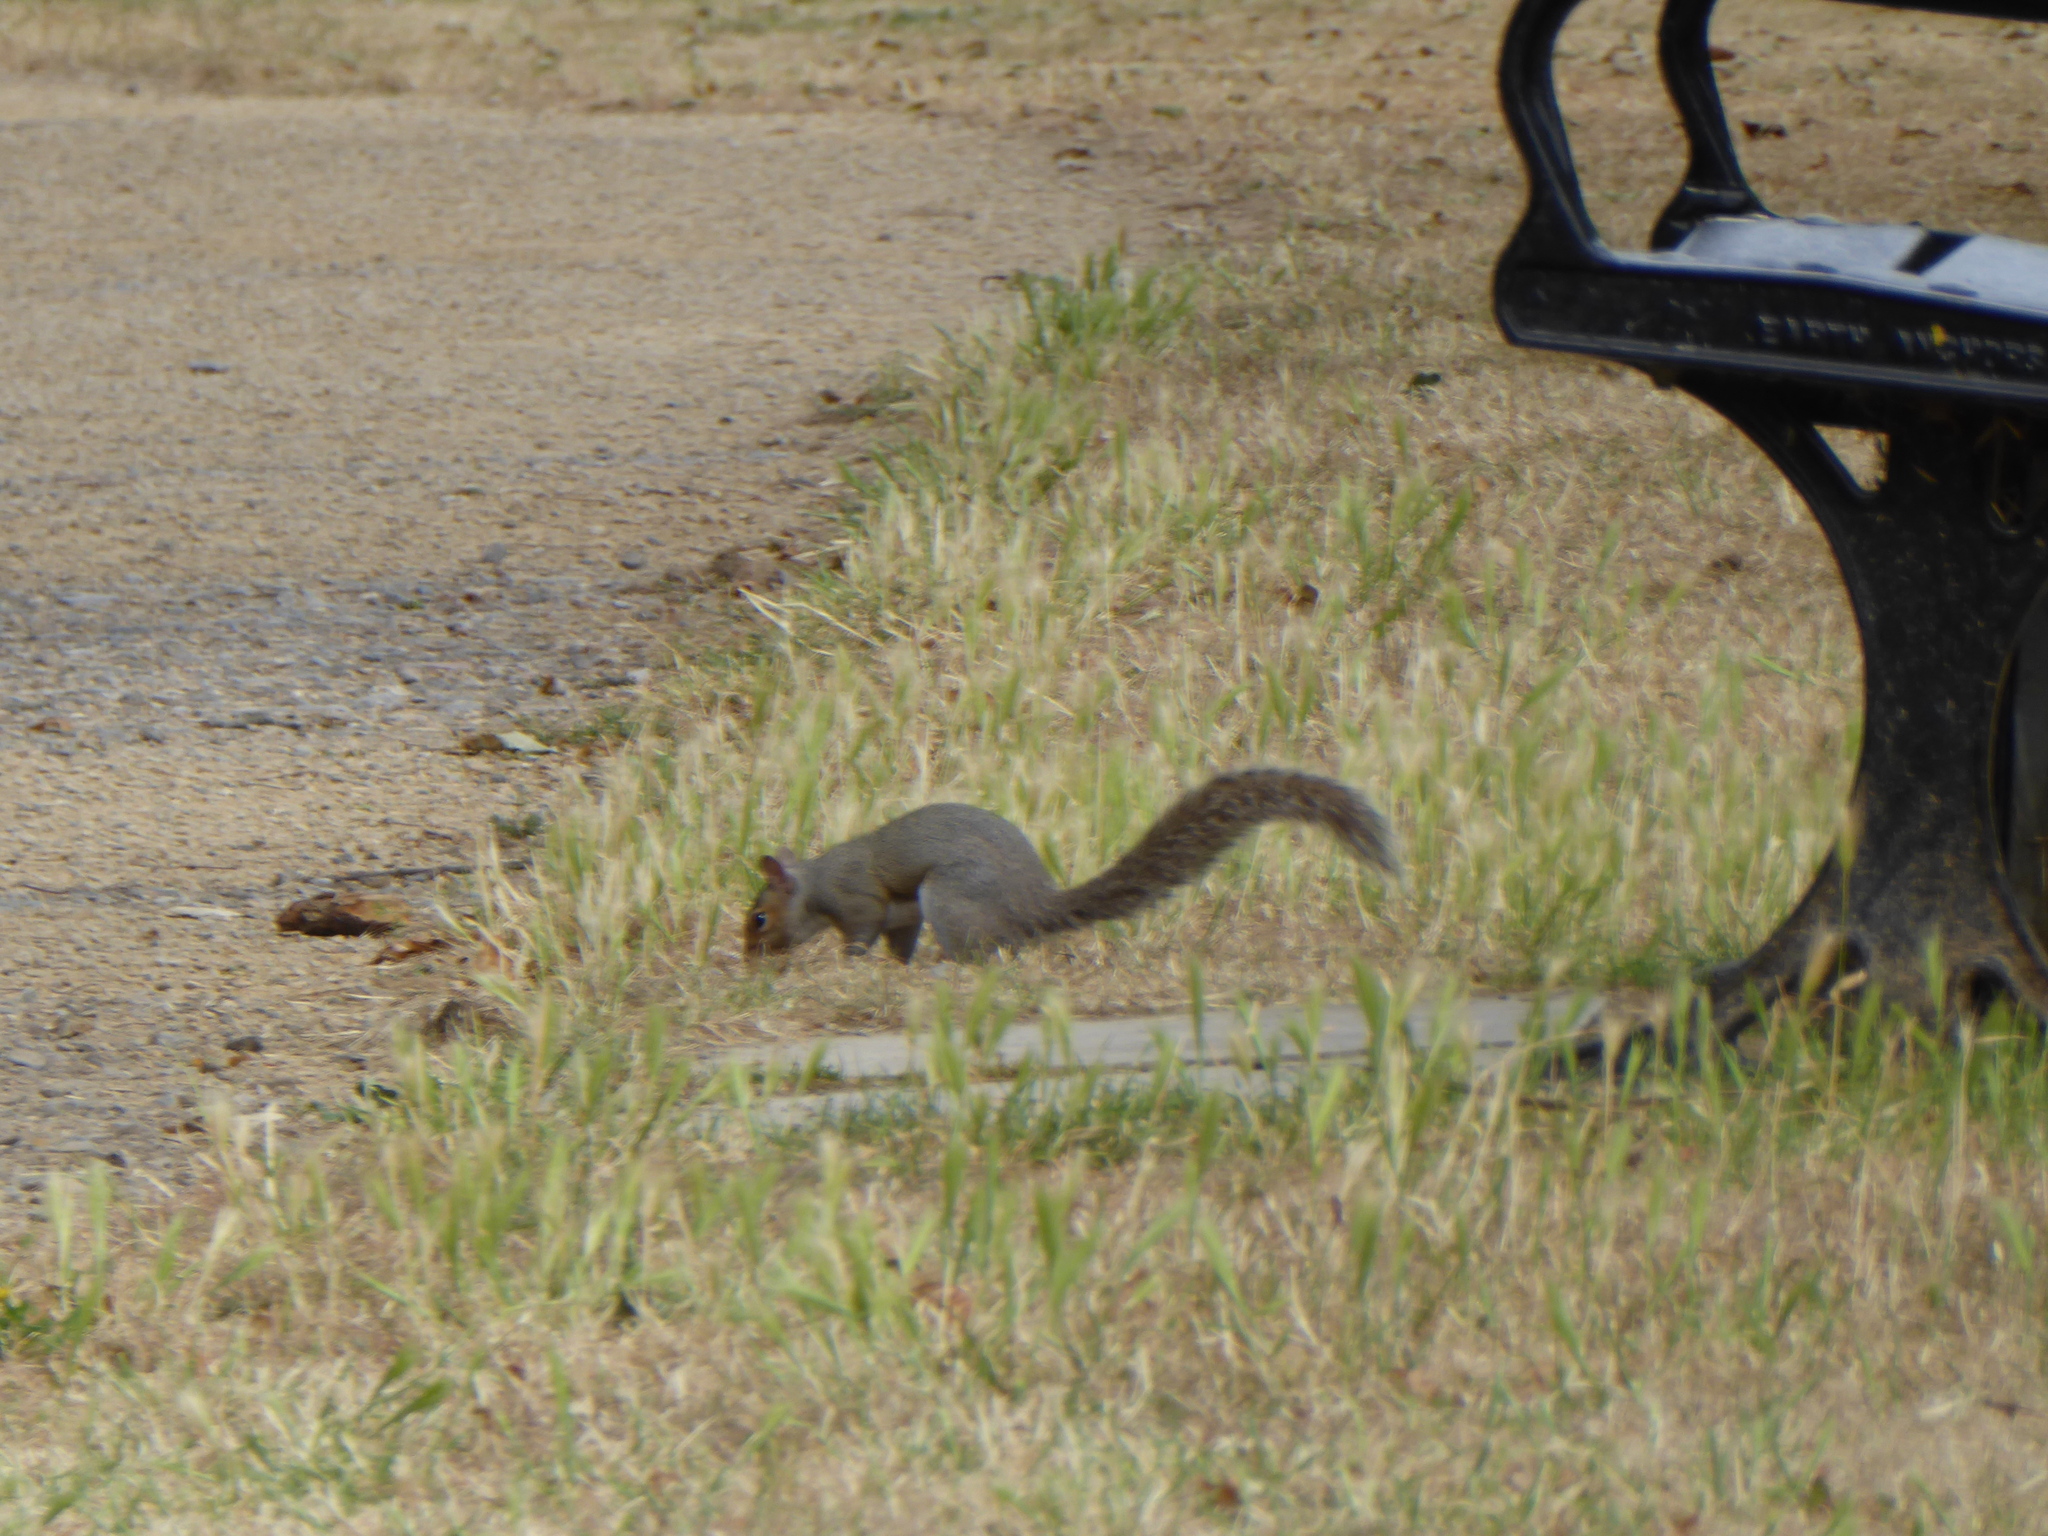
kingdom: Animalia
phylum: Chordata
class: Mammalia
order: Rodentia
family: Sciuridae
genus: Sciurus
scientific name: Sciurus carolinensis
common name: Eastern gray squirrel
